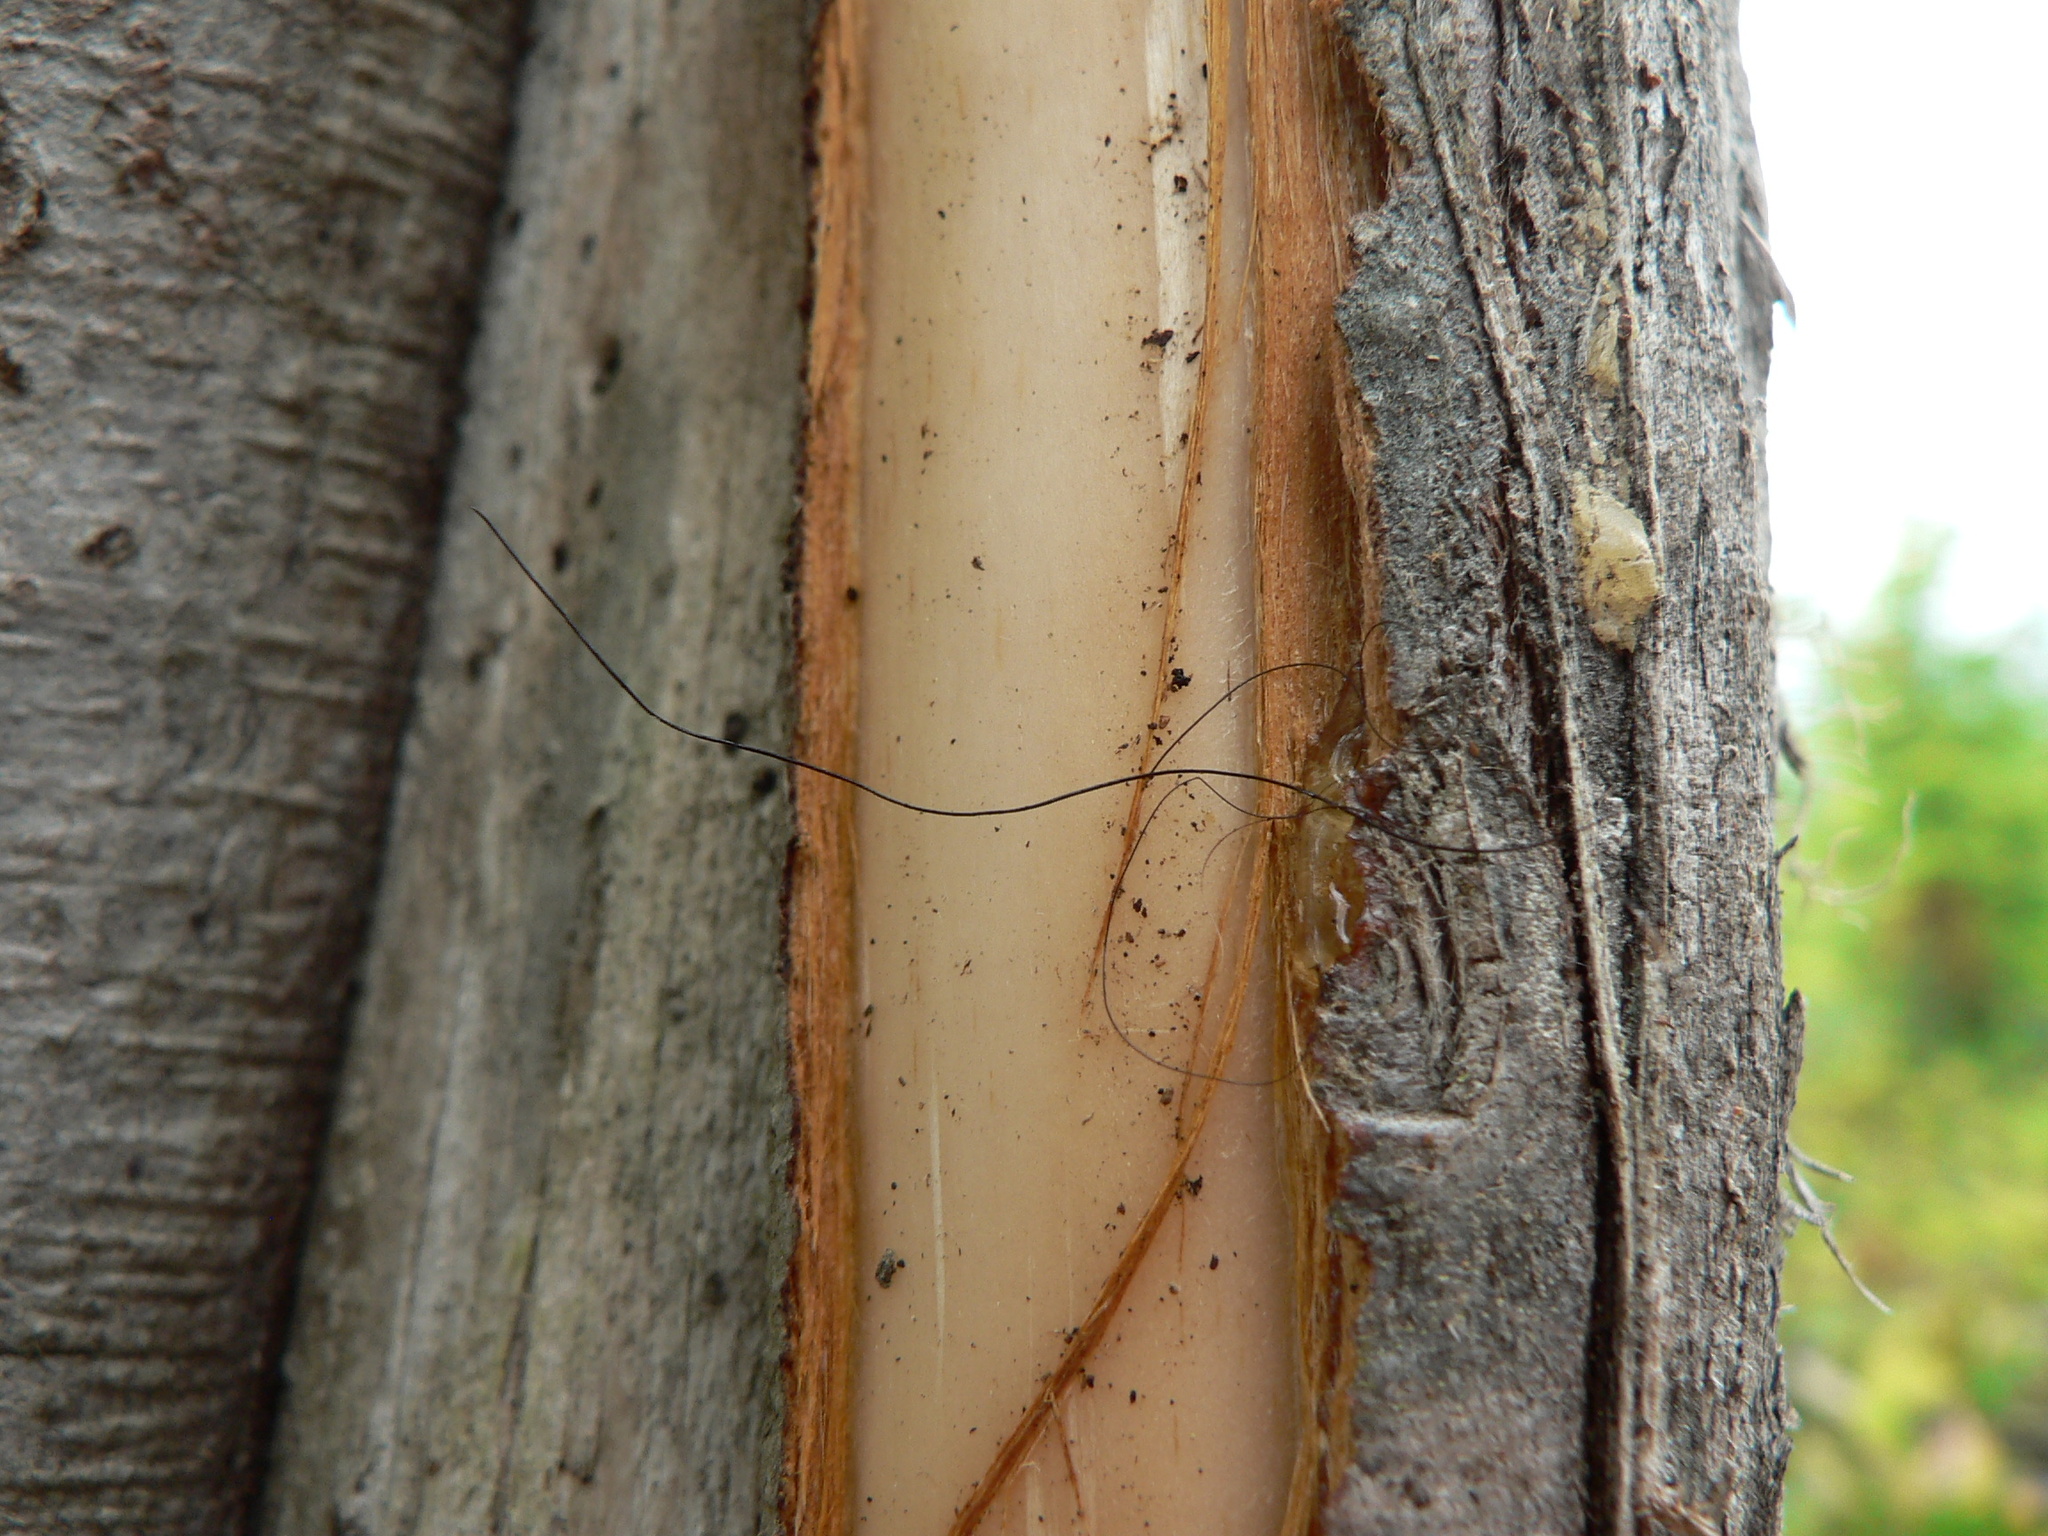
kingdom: Animalia
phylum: Chordata
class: Mammalia
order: Carnivora
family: Ursidae
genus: Ursus
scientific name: Ursus americanus
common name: American black bear
